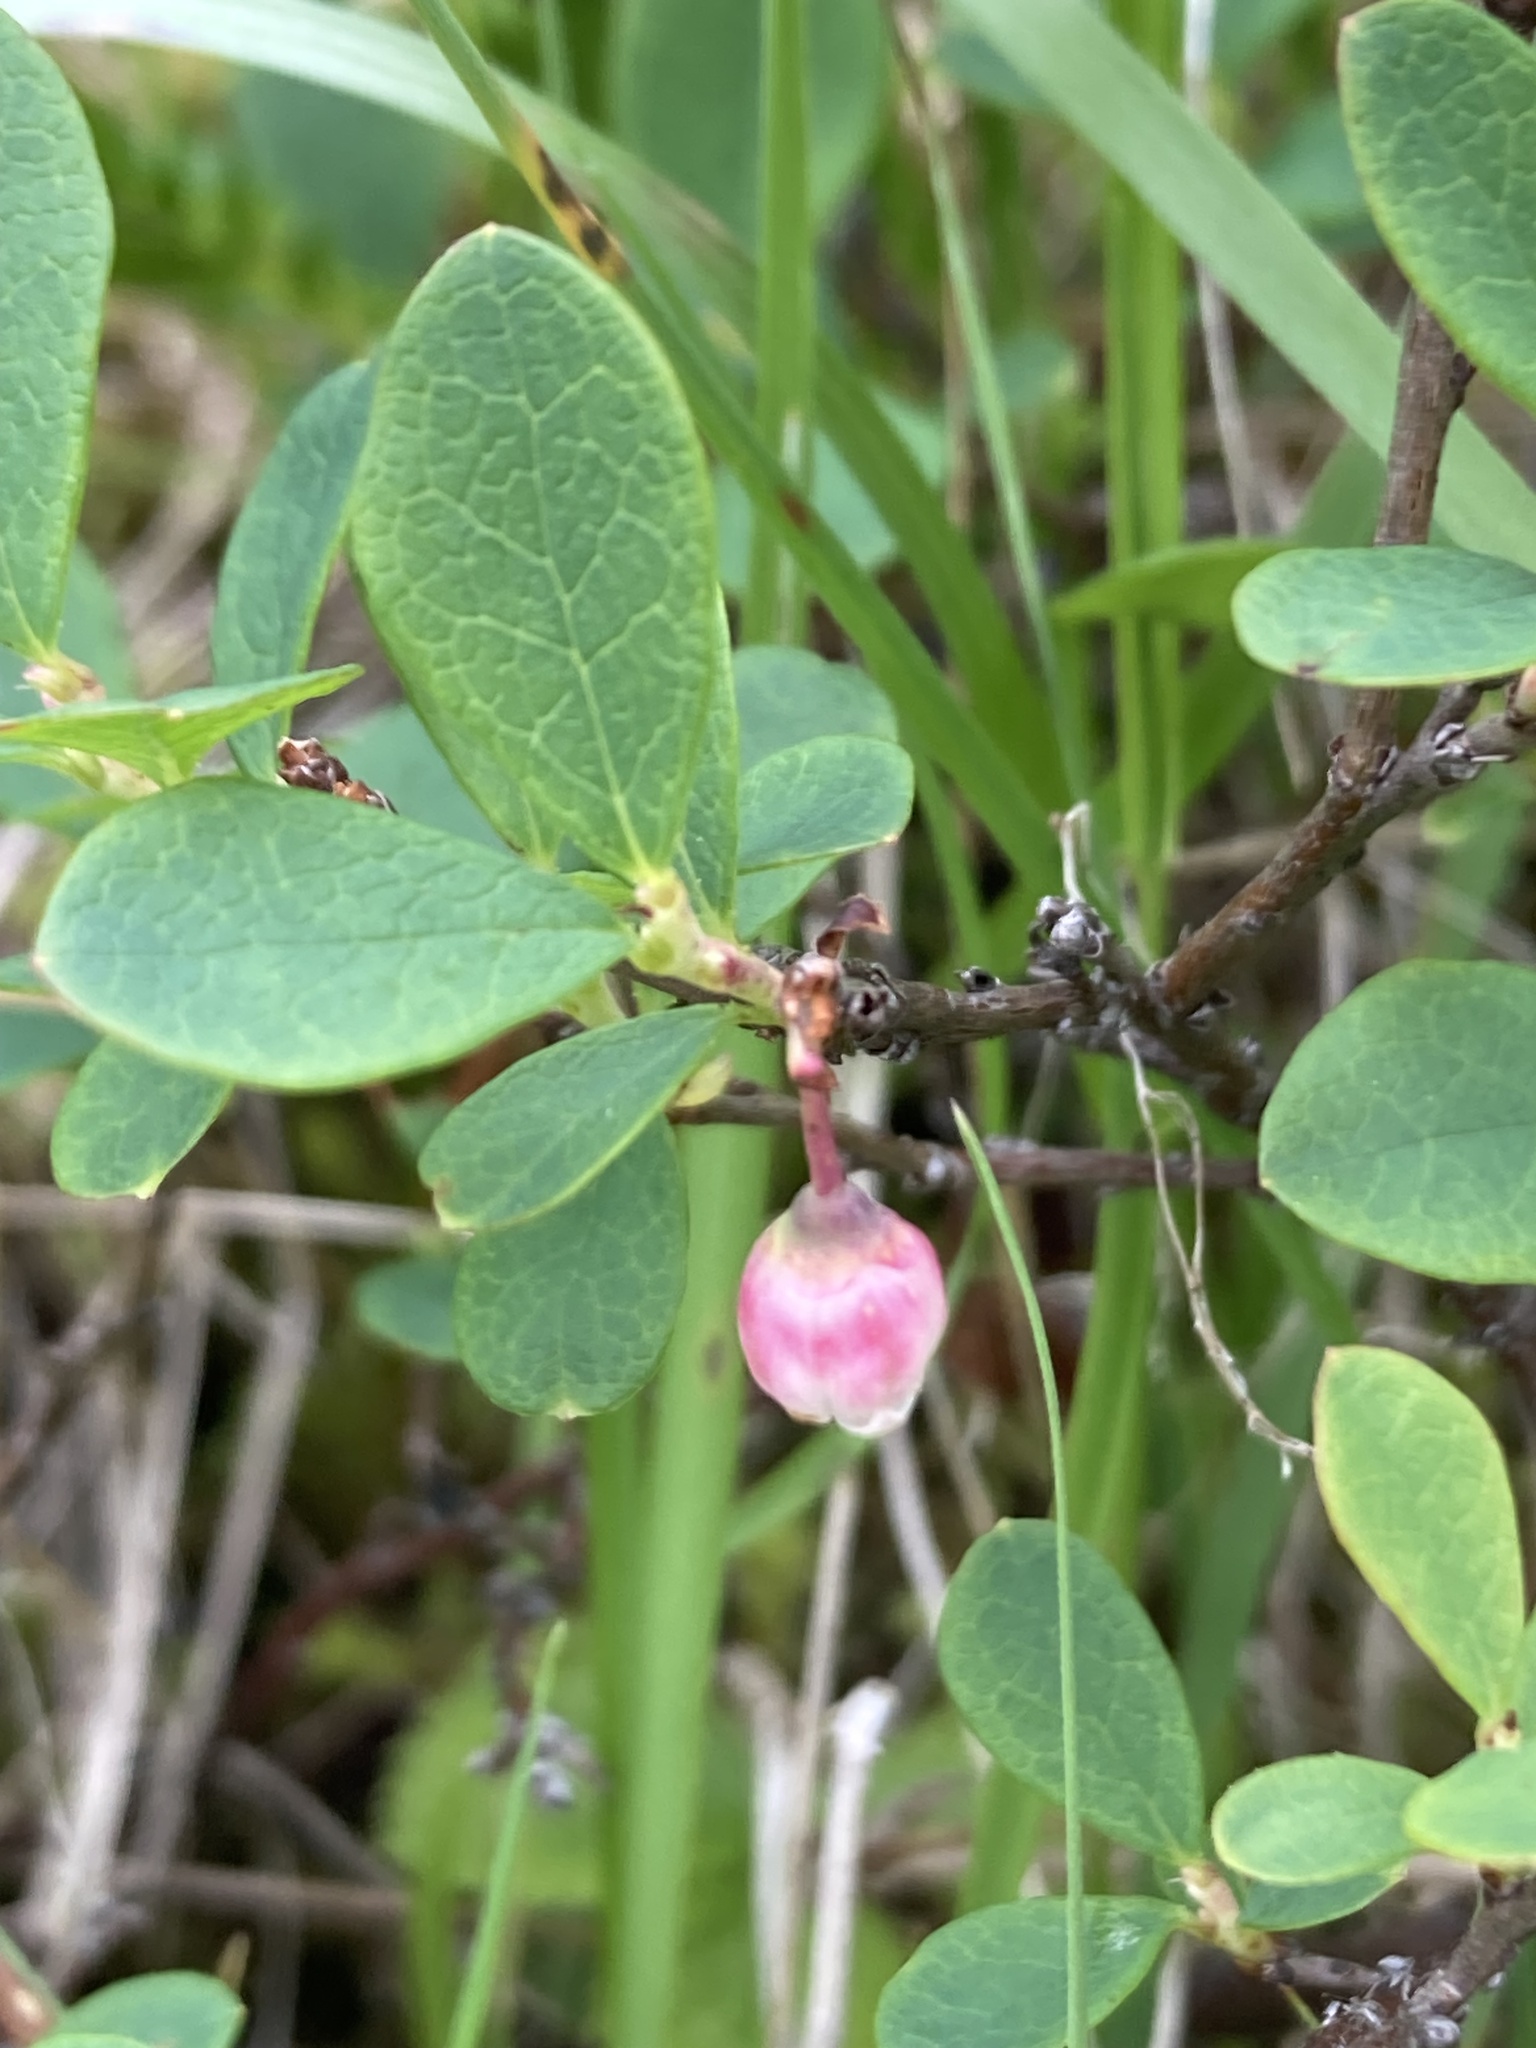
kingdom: Plantae
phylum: Tracheophyta
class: Magnoliopsida
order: Ericales
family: Ericaceae
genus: Vaccinium
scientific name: Vaccinium uliginosum
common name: Bog bilberry
